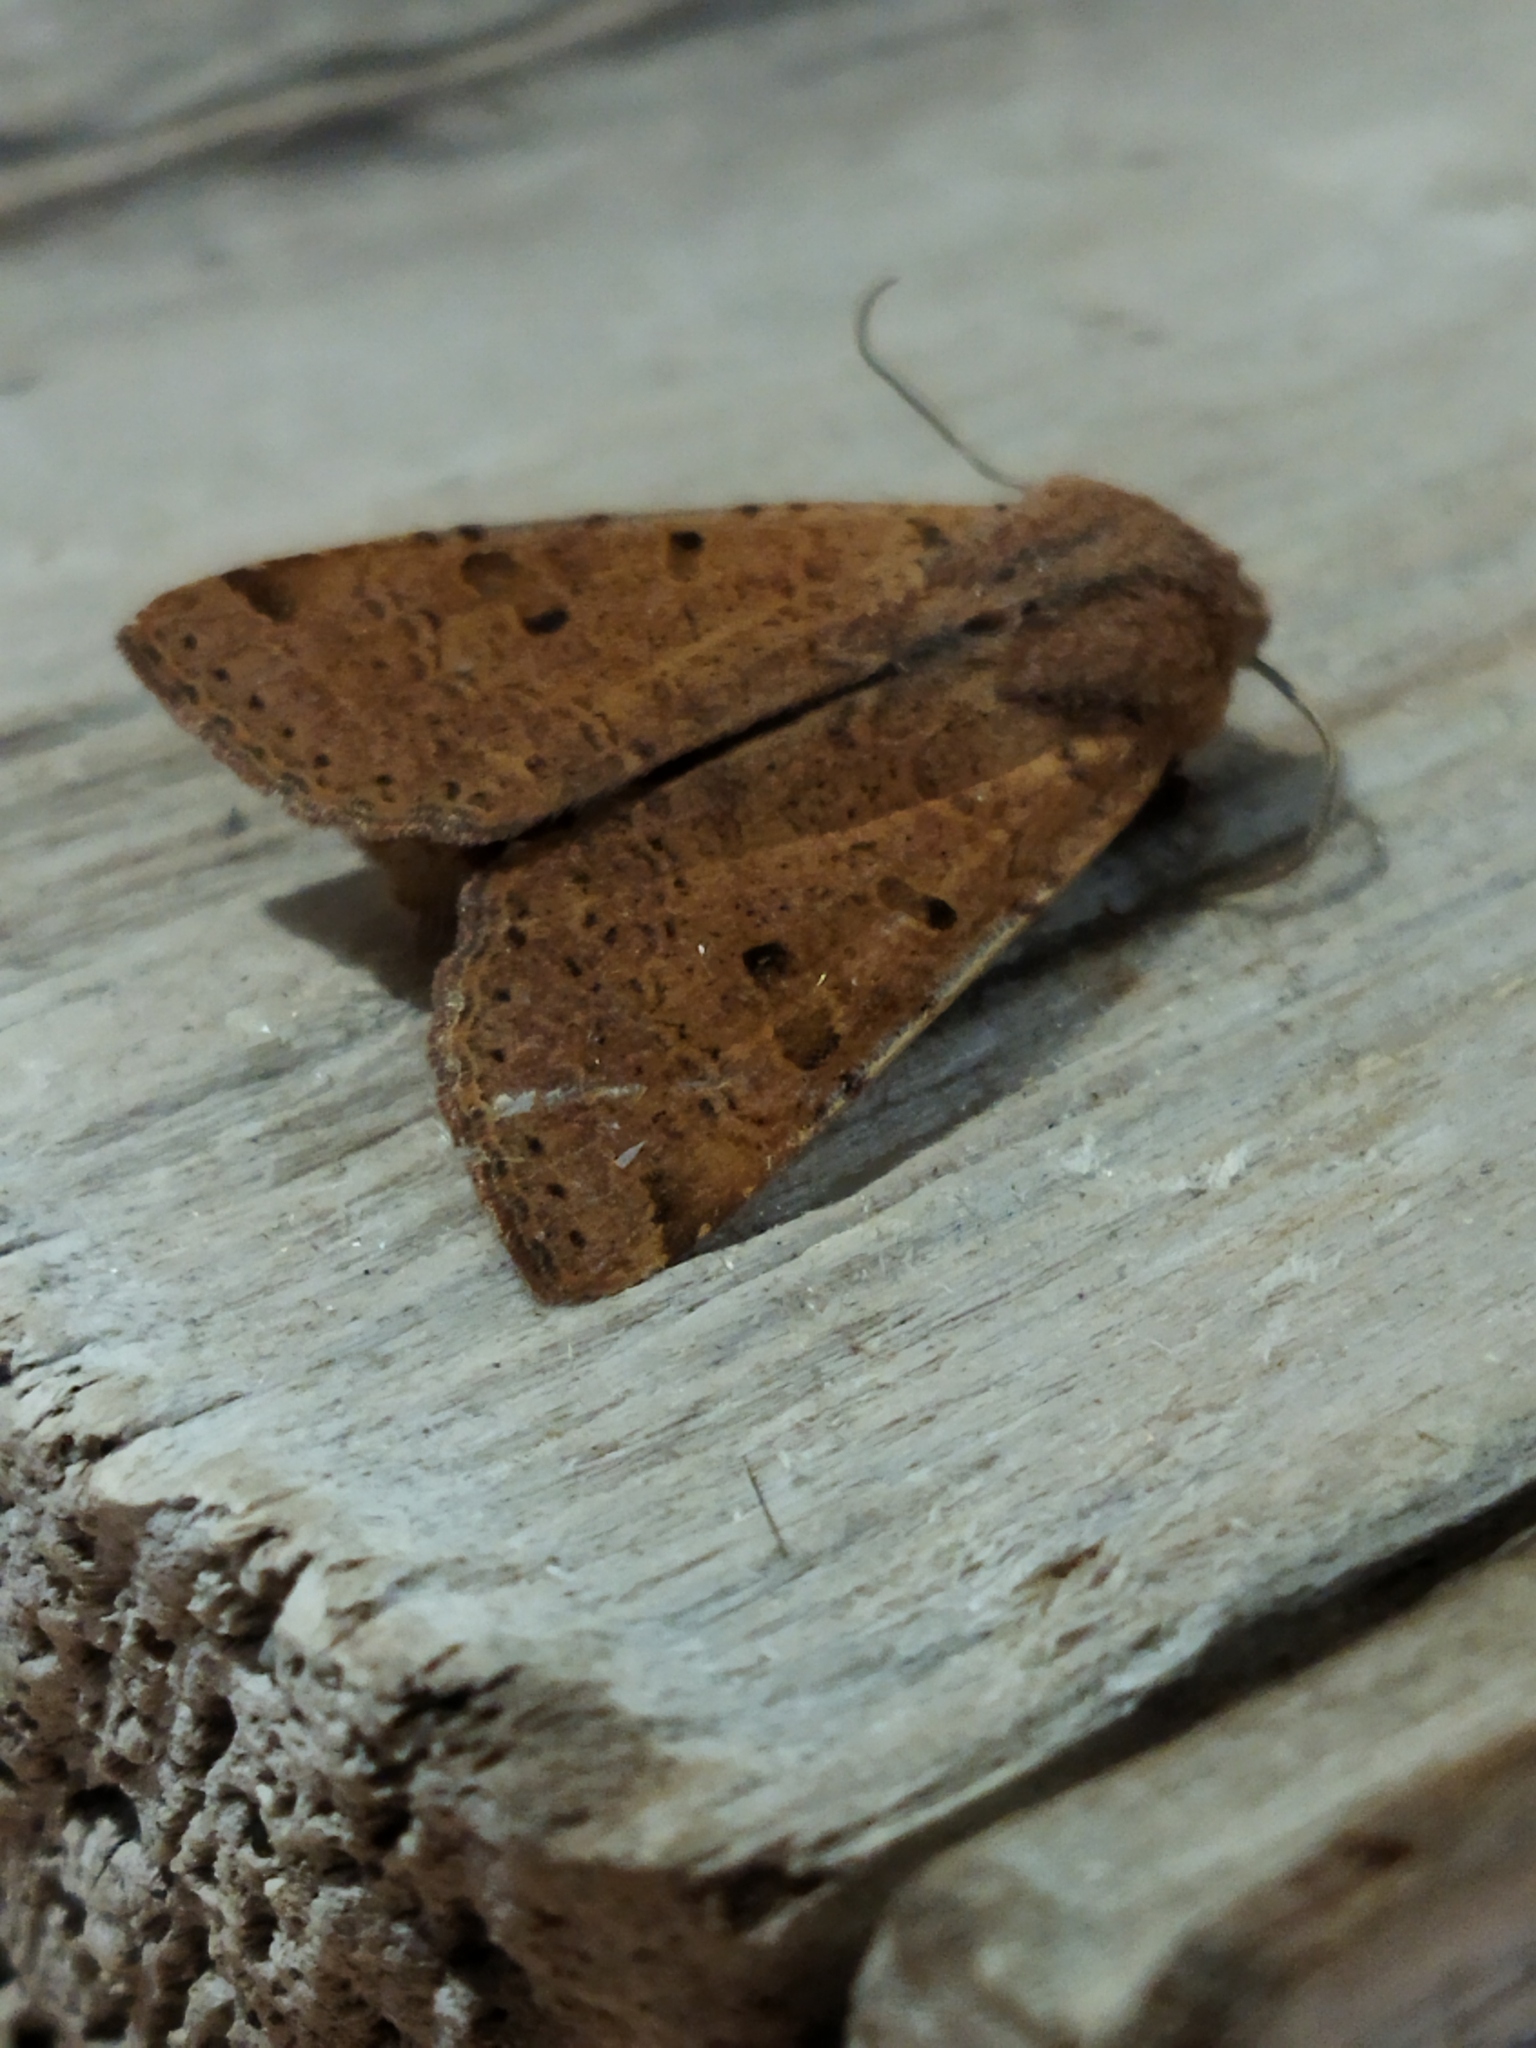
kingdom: Animalia
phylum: Arthropoda
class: Insecta
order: Lepidoptera
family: Noctuidae
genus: Agrochola
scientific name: Agrochola lychnidis
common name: Beaded chestnut
